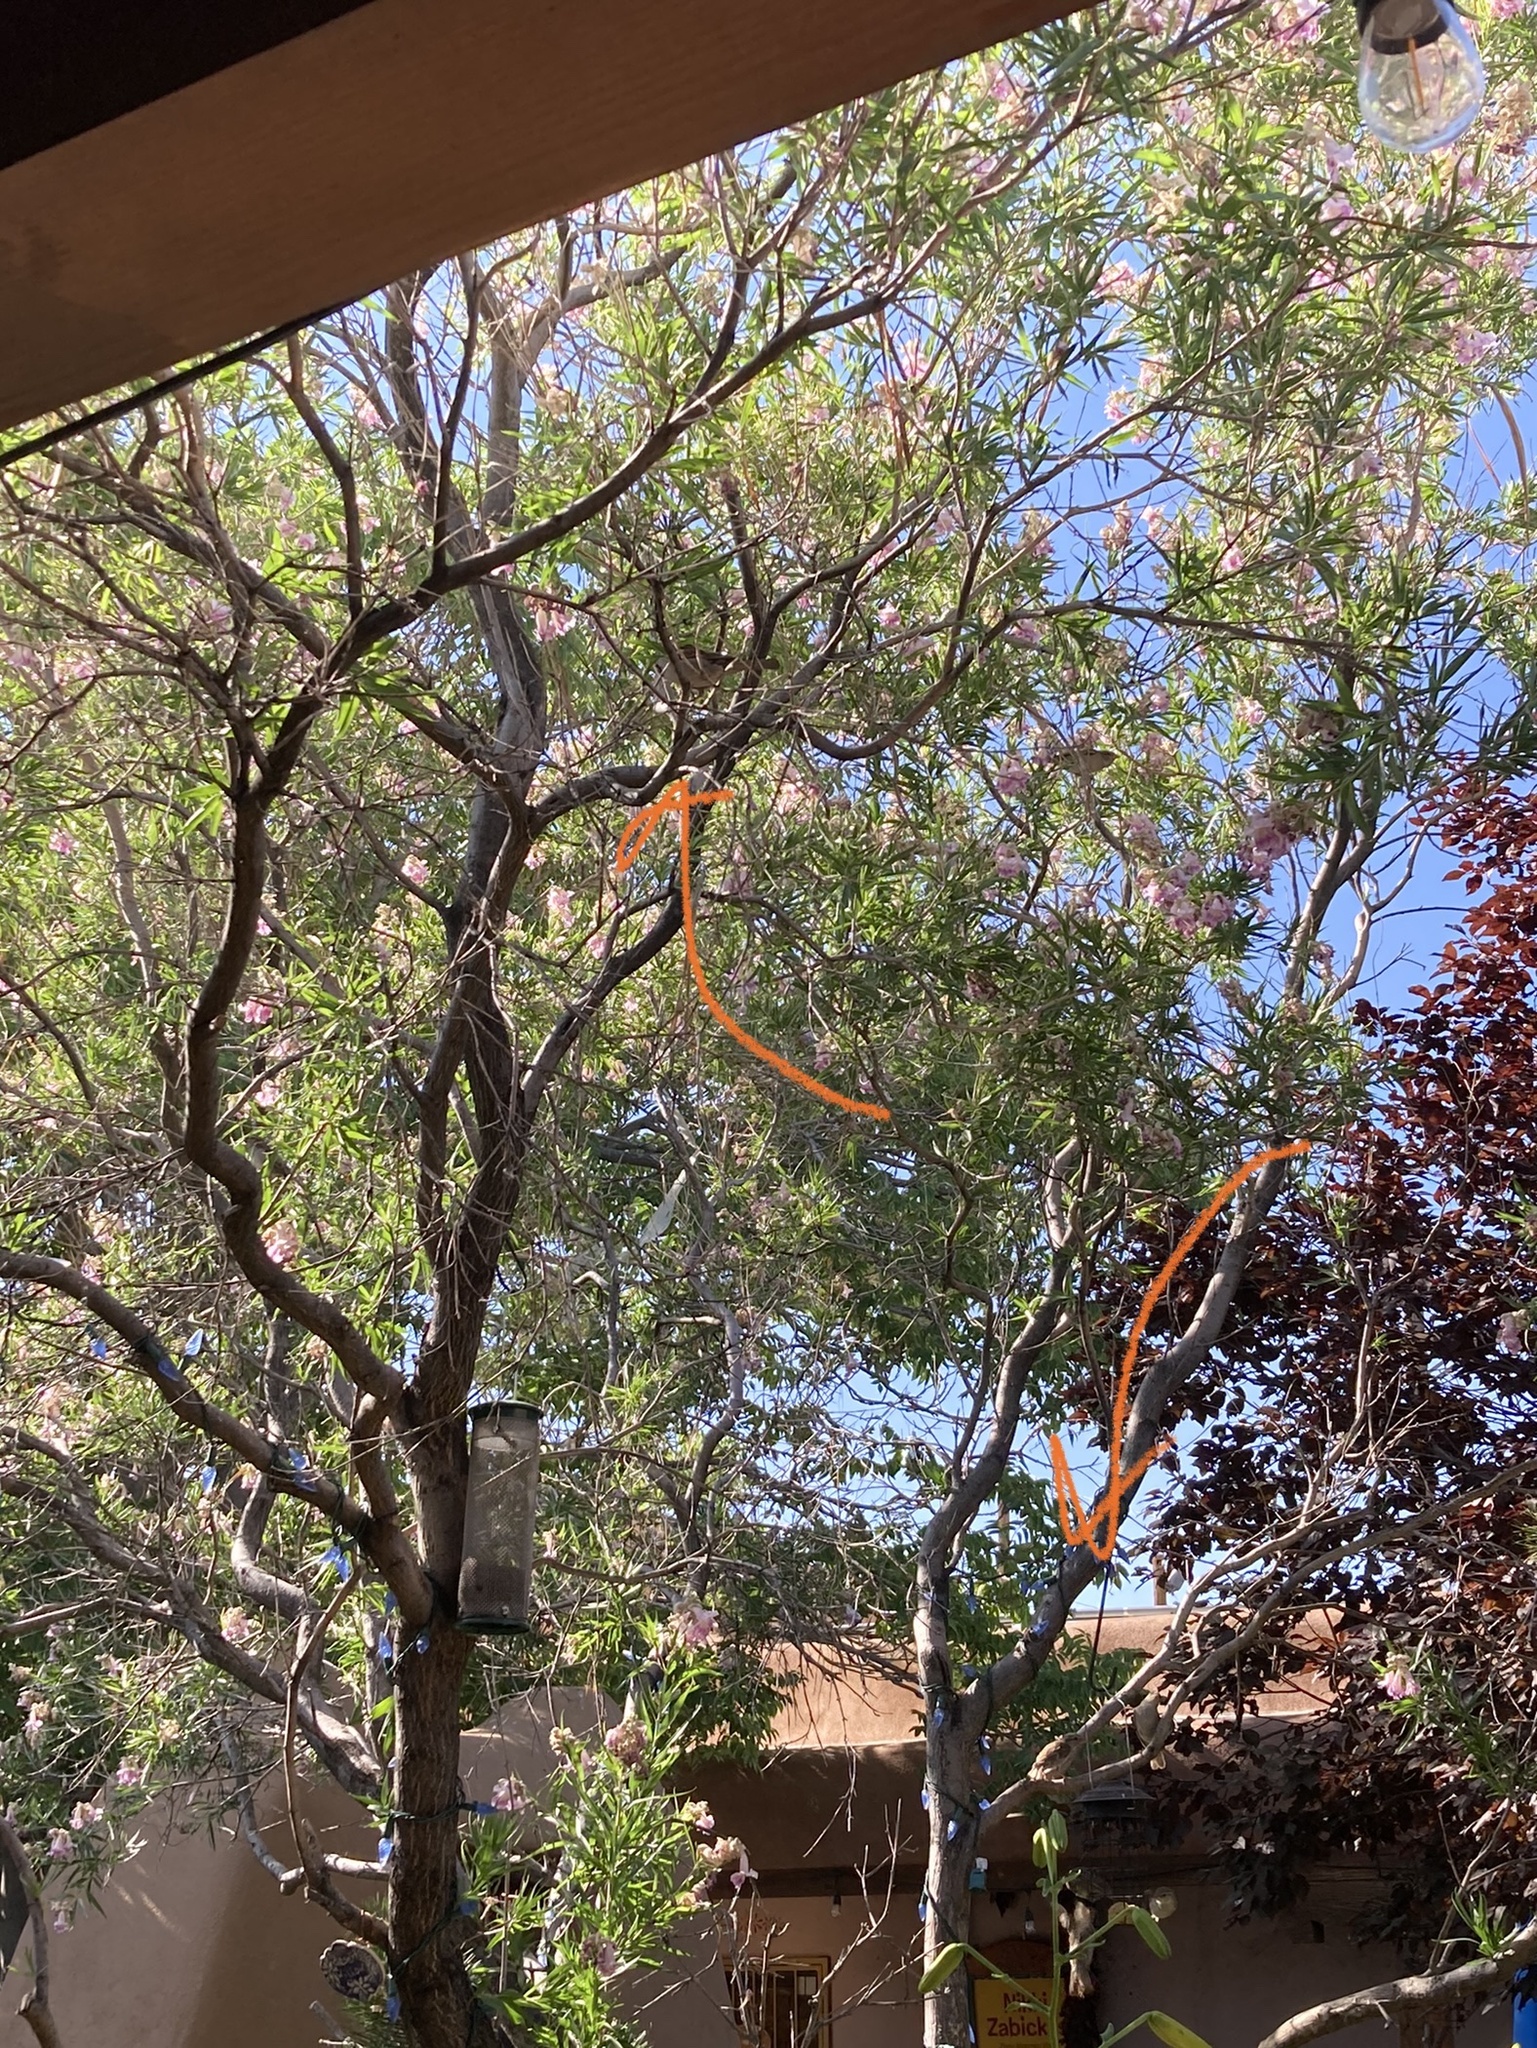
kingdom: Animalia
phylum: Chordata
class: Aves
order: Passeriformes
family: Passeridae
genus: Passer
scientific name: Passer domesticus
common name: House sparrow
